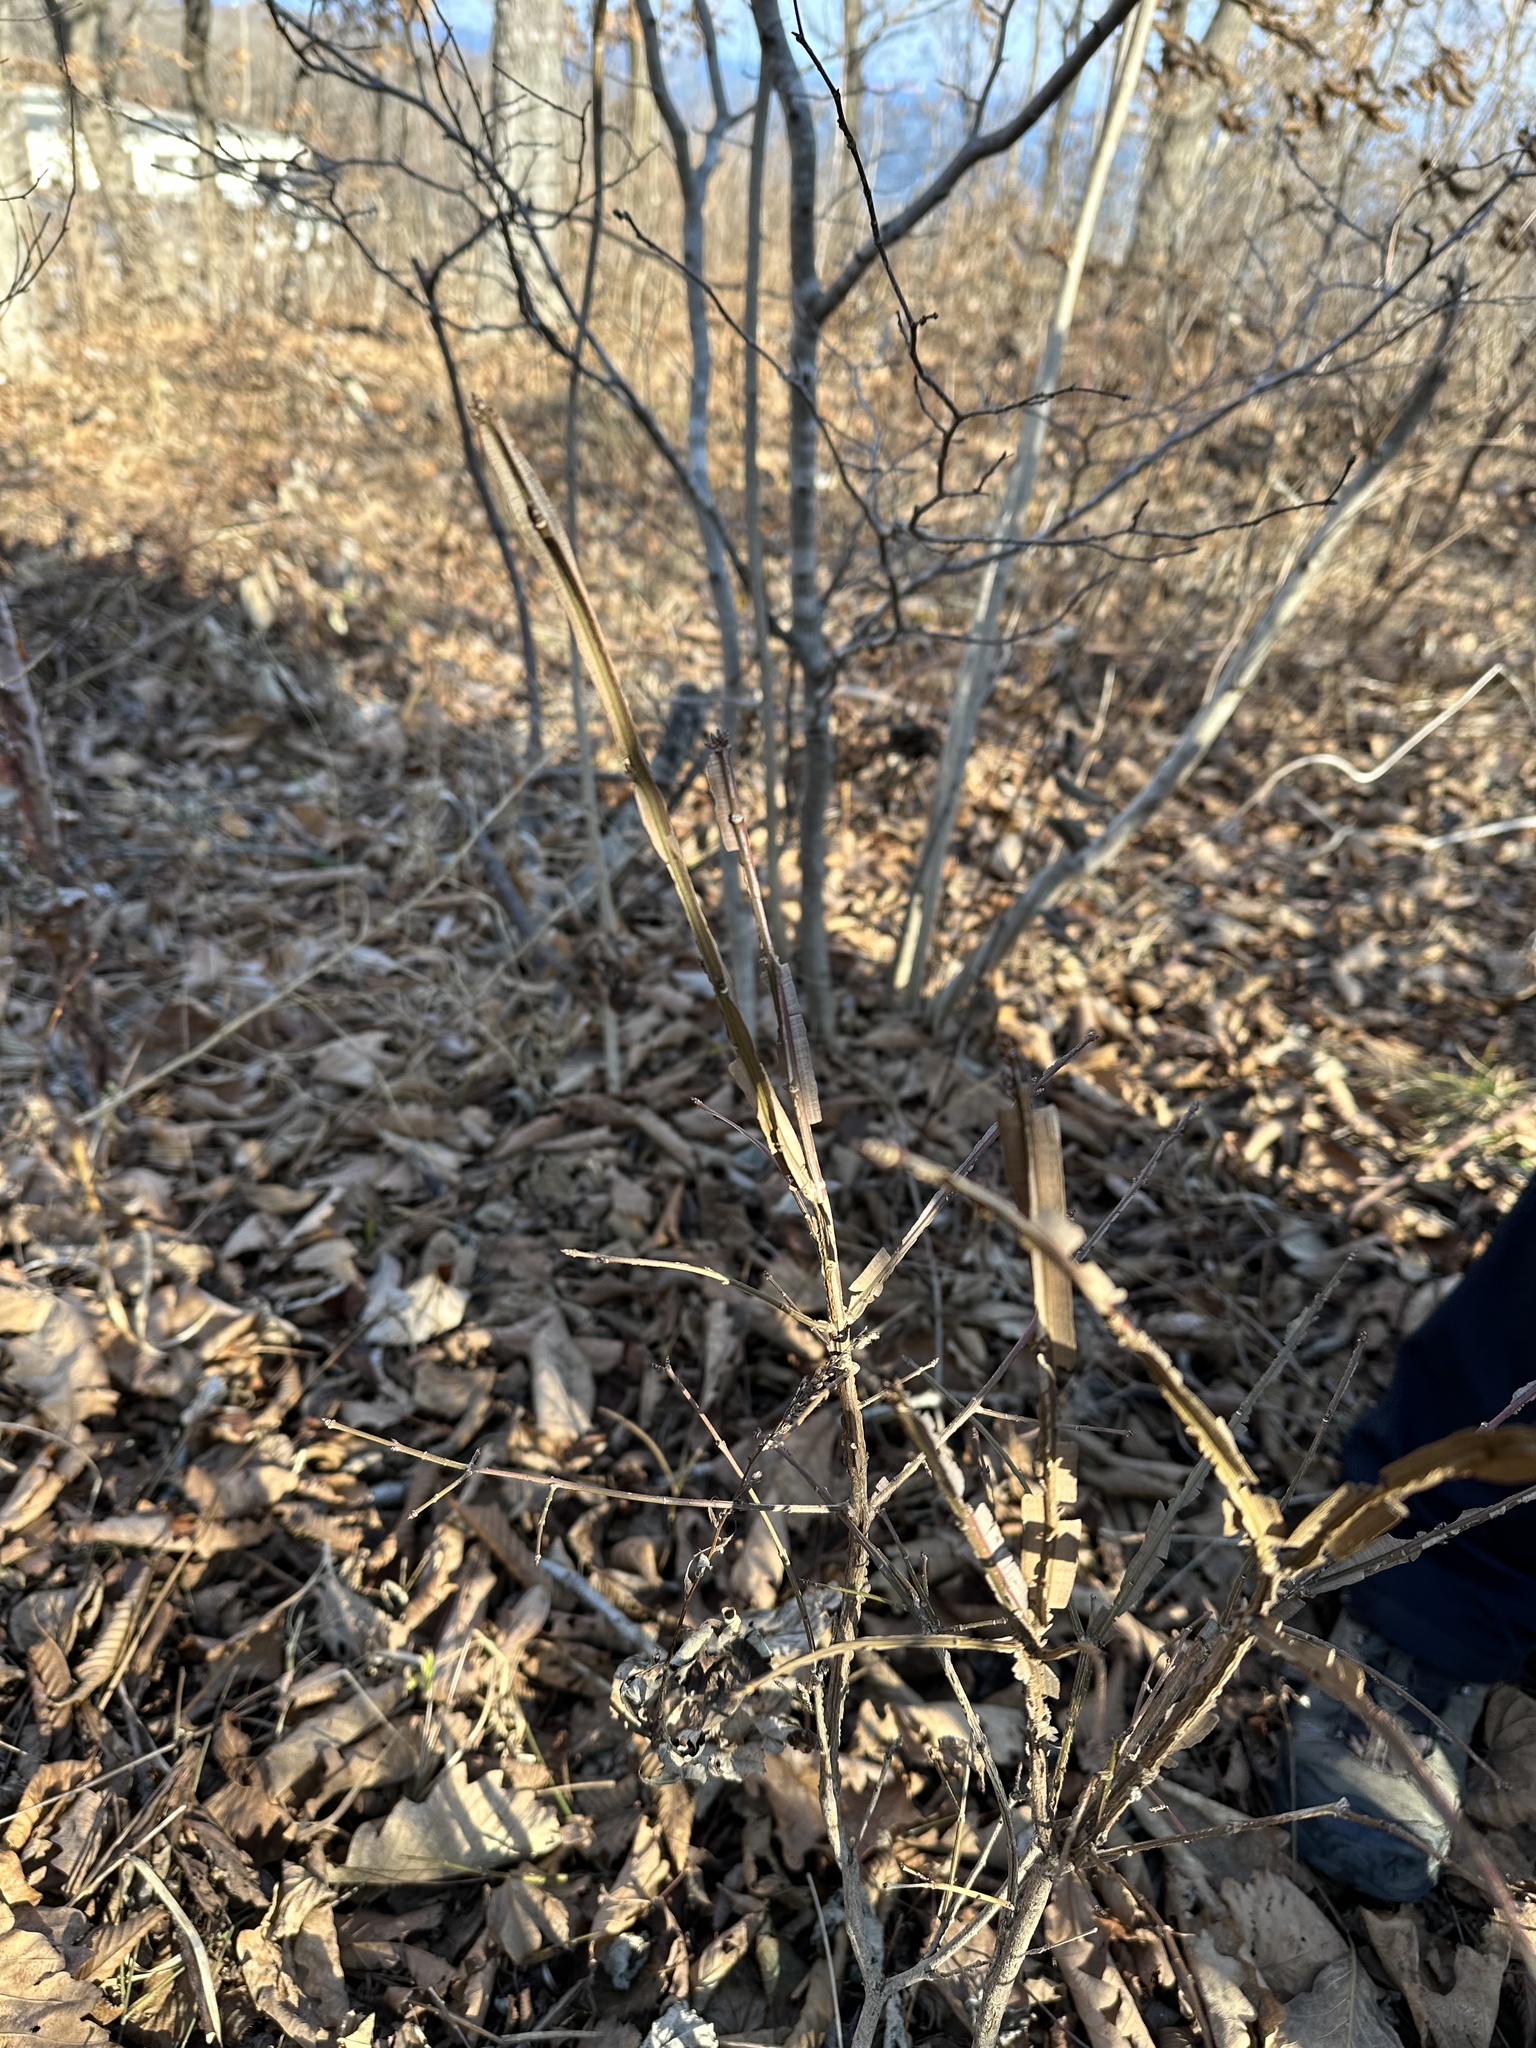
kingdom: Plantae
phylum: Tracheophyta
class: Magnoliopsida
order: Celastrales
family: Celastraceae
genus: Euonymus
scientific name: Euonymus alatus
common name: Winged euonymus
